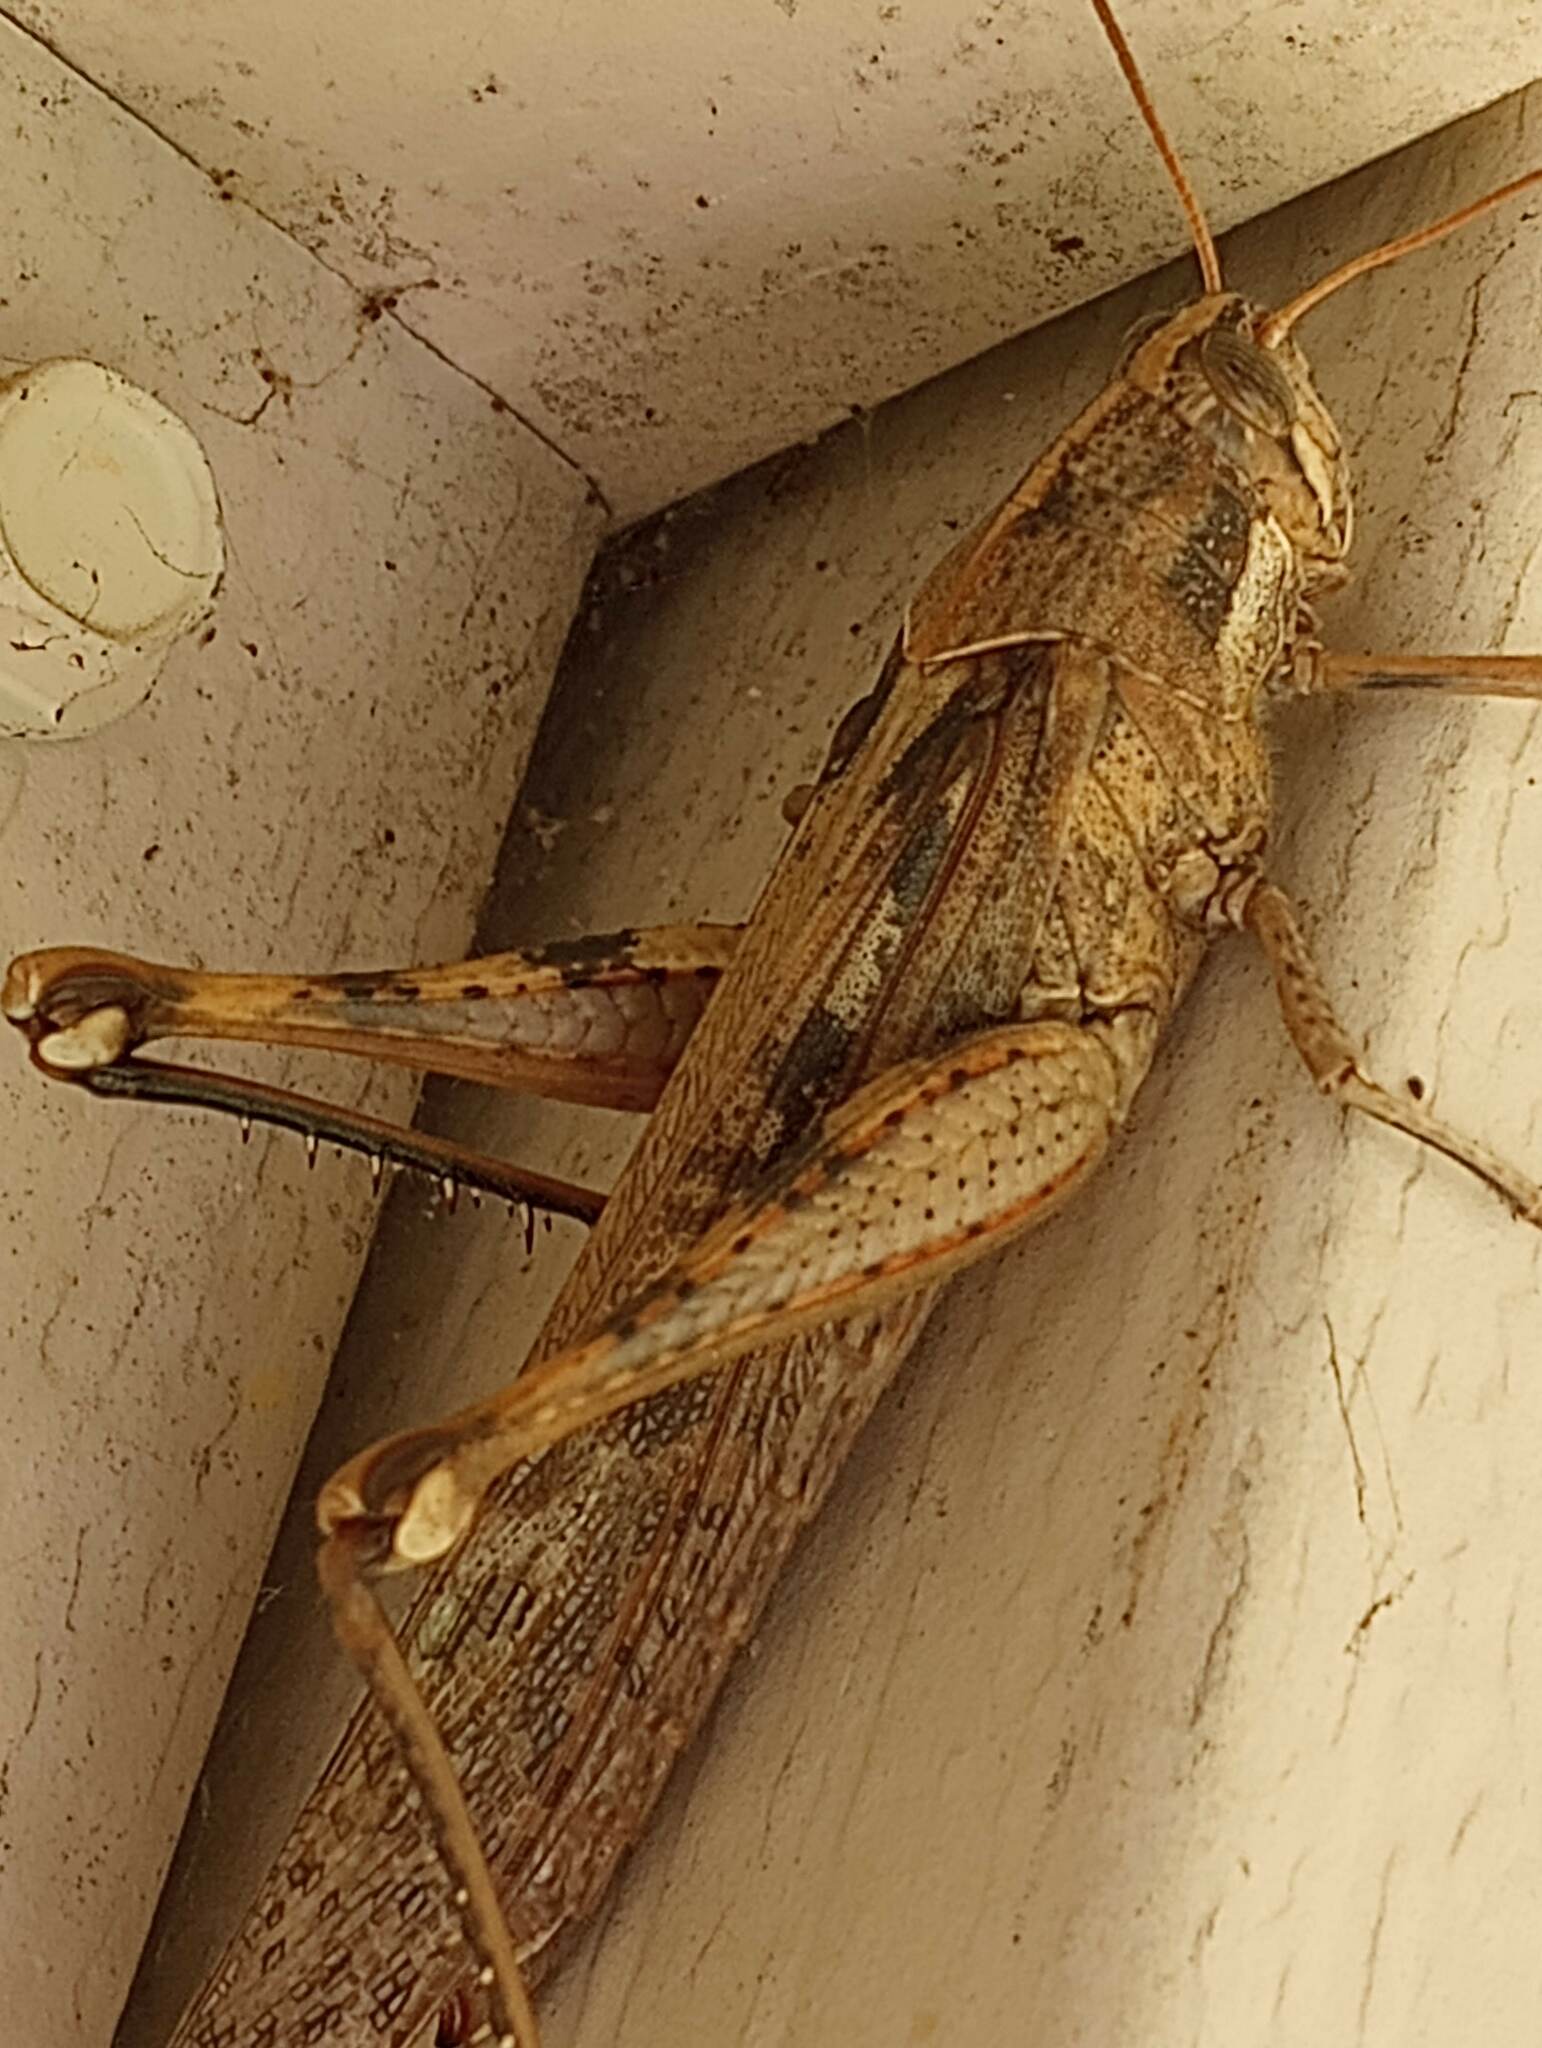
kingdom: Animalia
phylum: Arthropoda
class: Insecta
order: Orthoptera
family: Acrididae
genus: Schistocerca
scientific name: Schistocerca nitens
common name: Vagrant grasshopper
